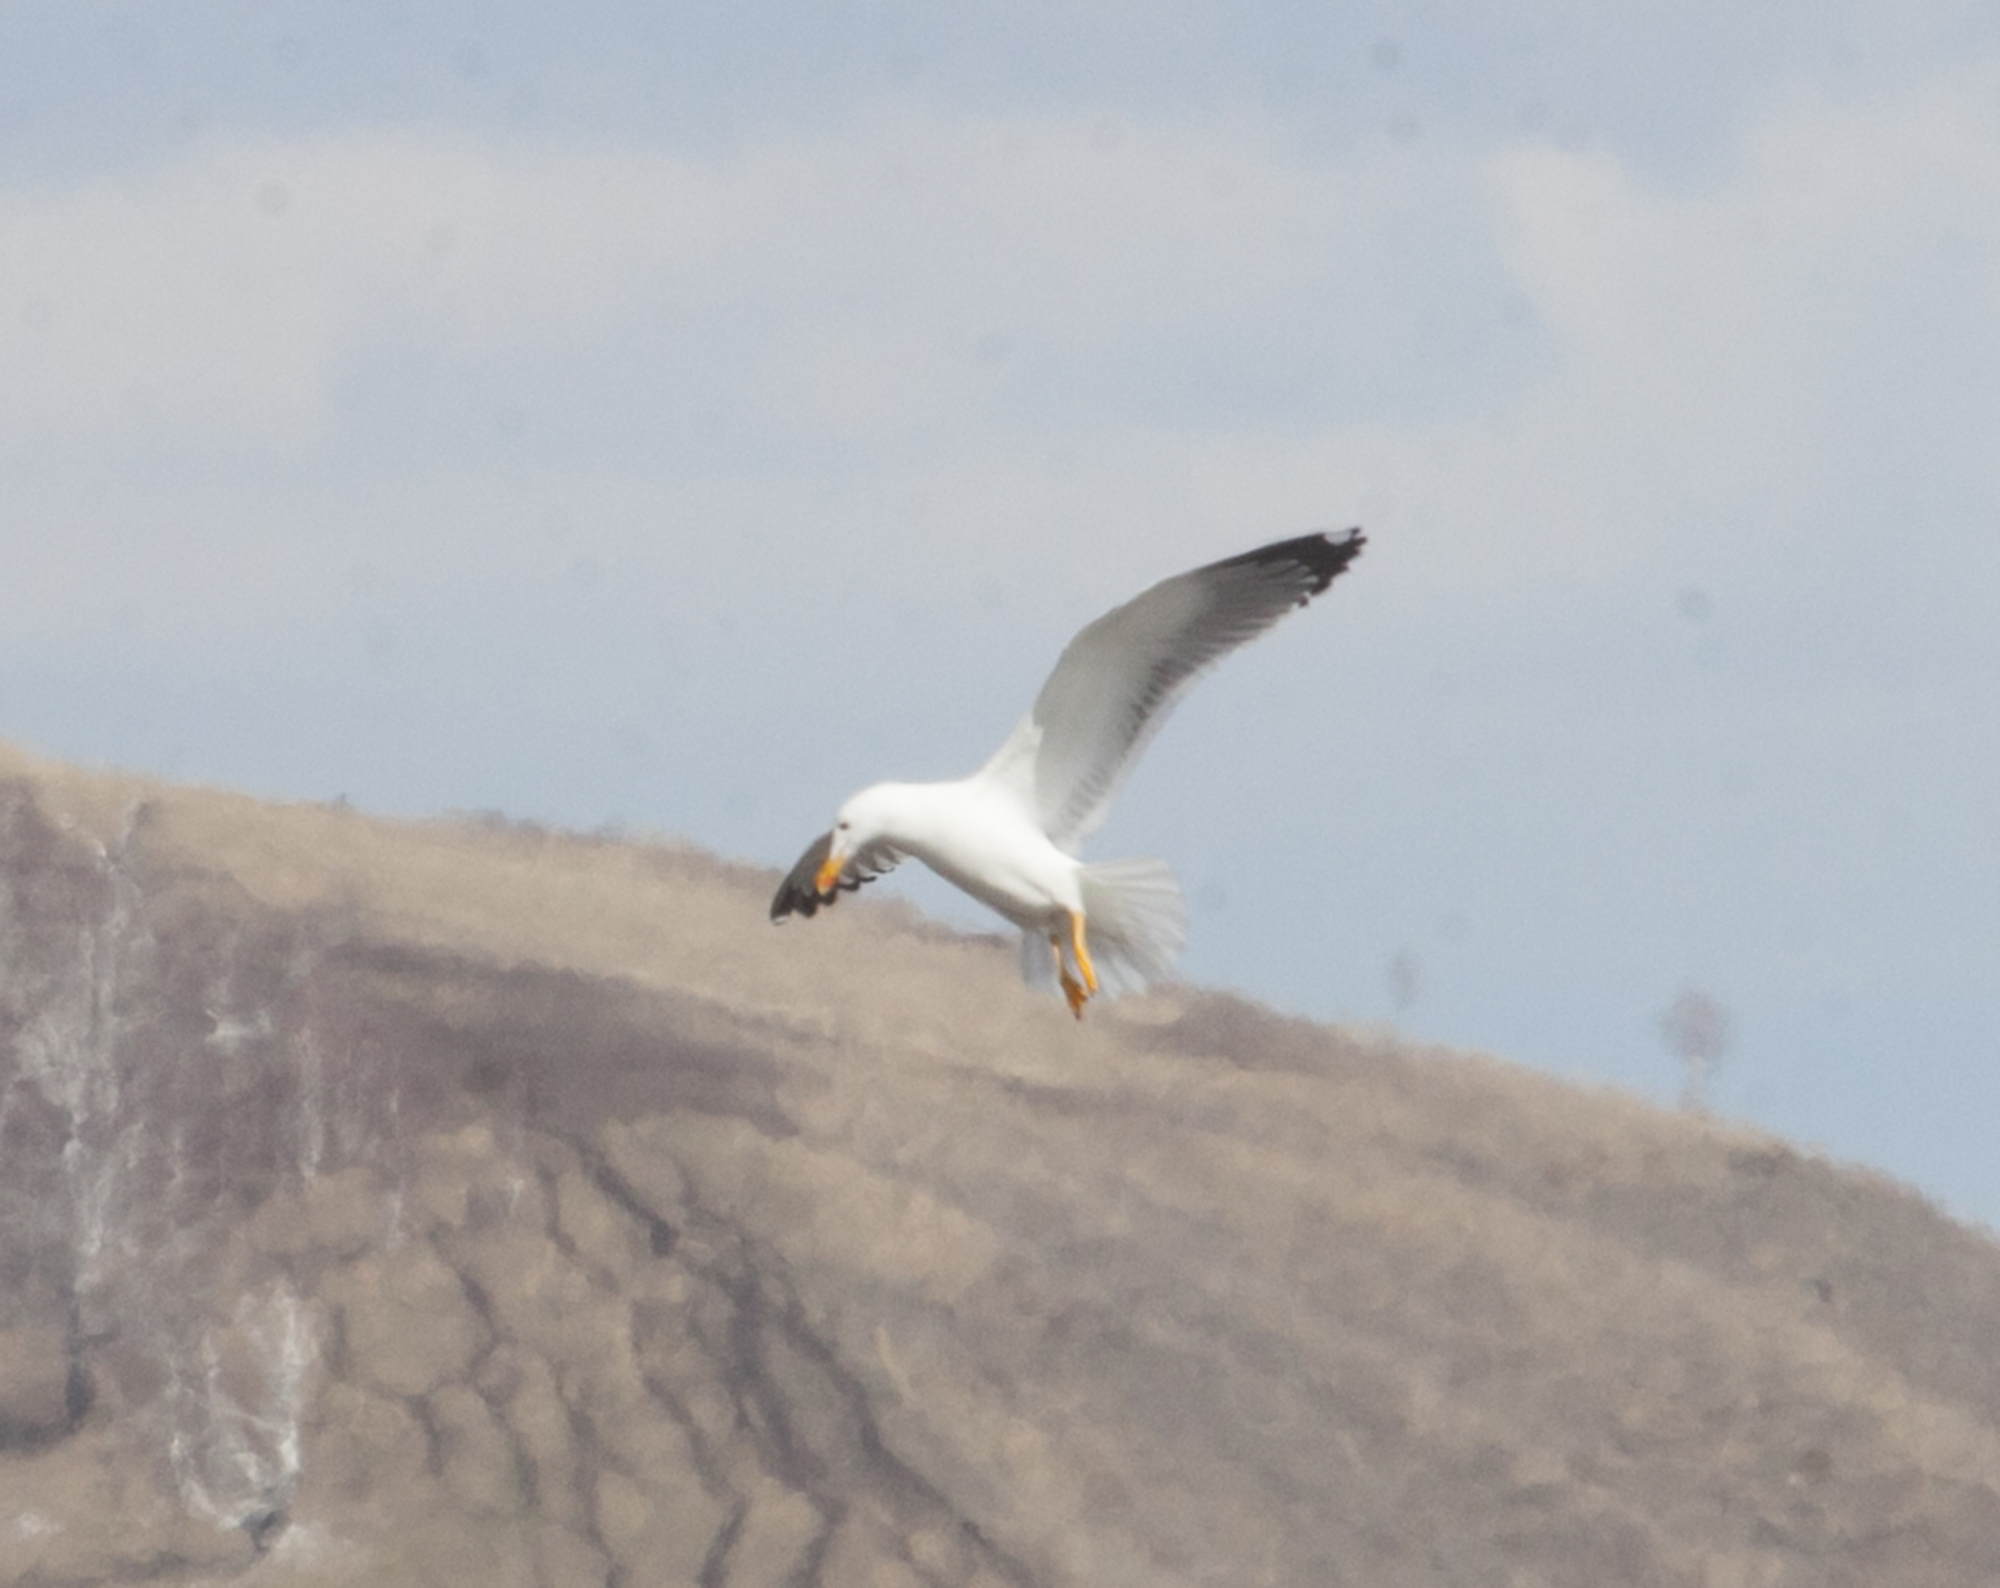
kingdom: Animalia
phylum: Chordata
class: Aves
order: Charadriiformes
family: Laridae
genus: Larus
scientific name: Larus fuscus
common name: Lesser black-backed gull
